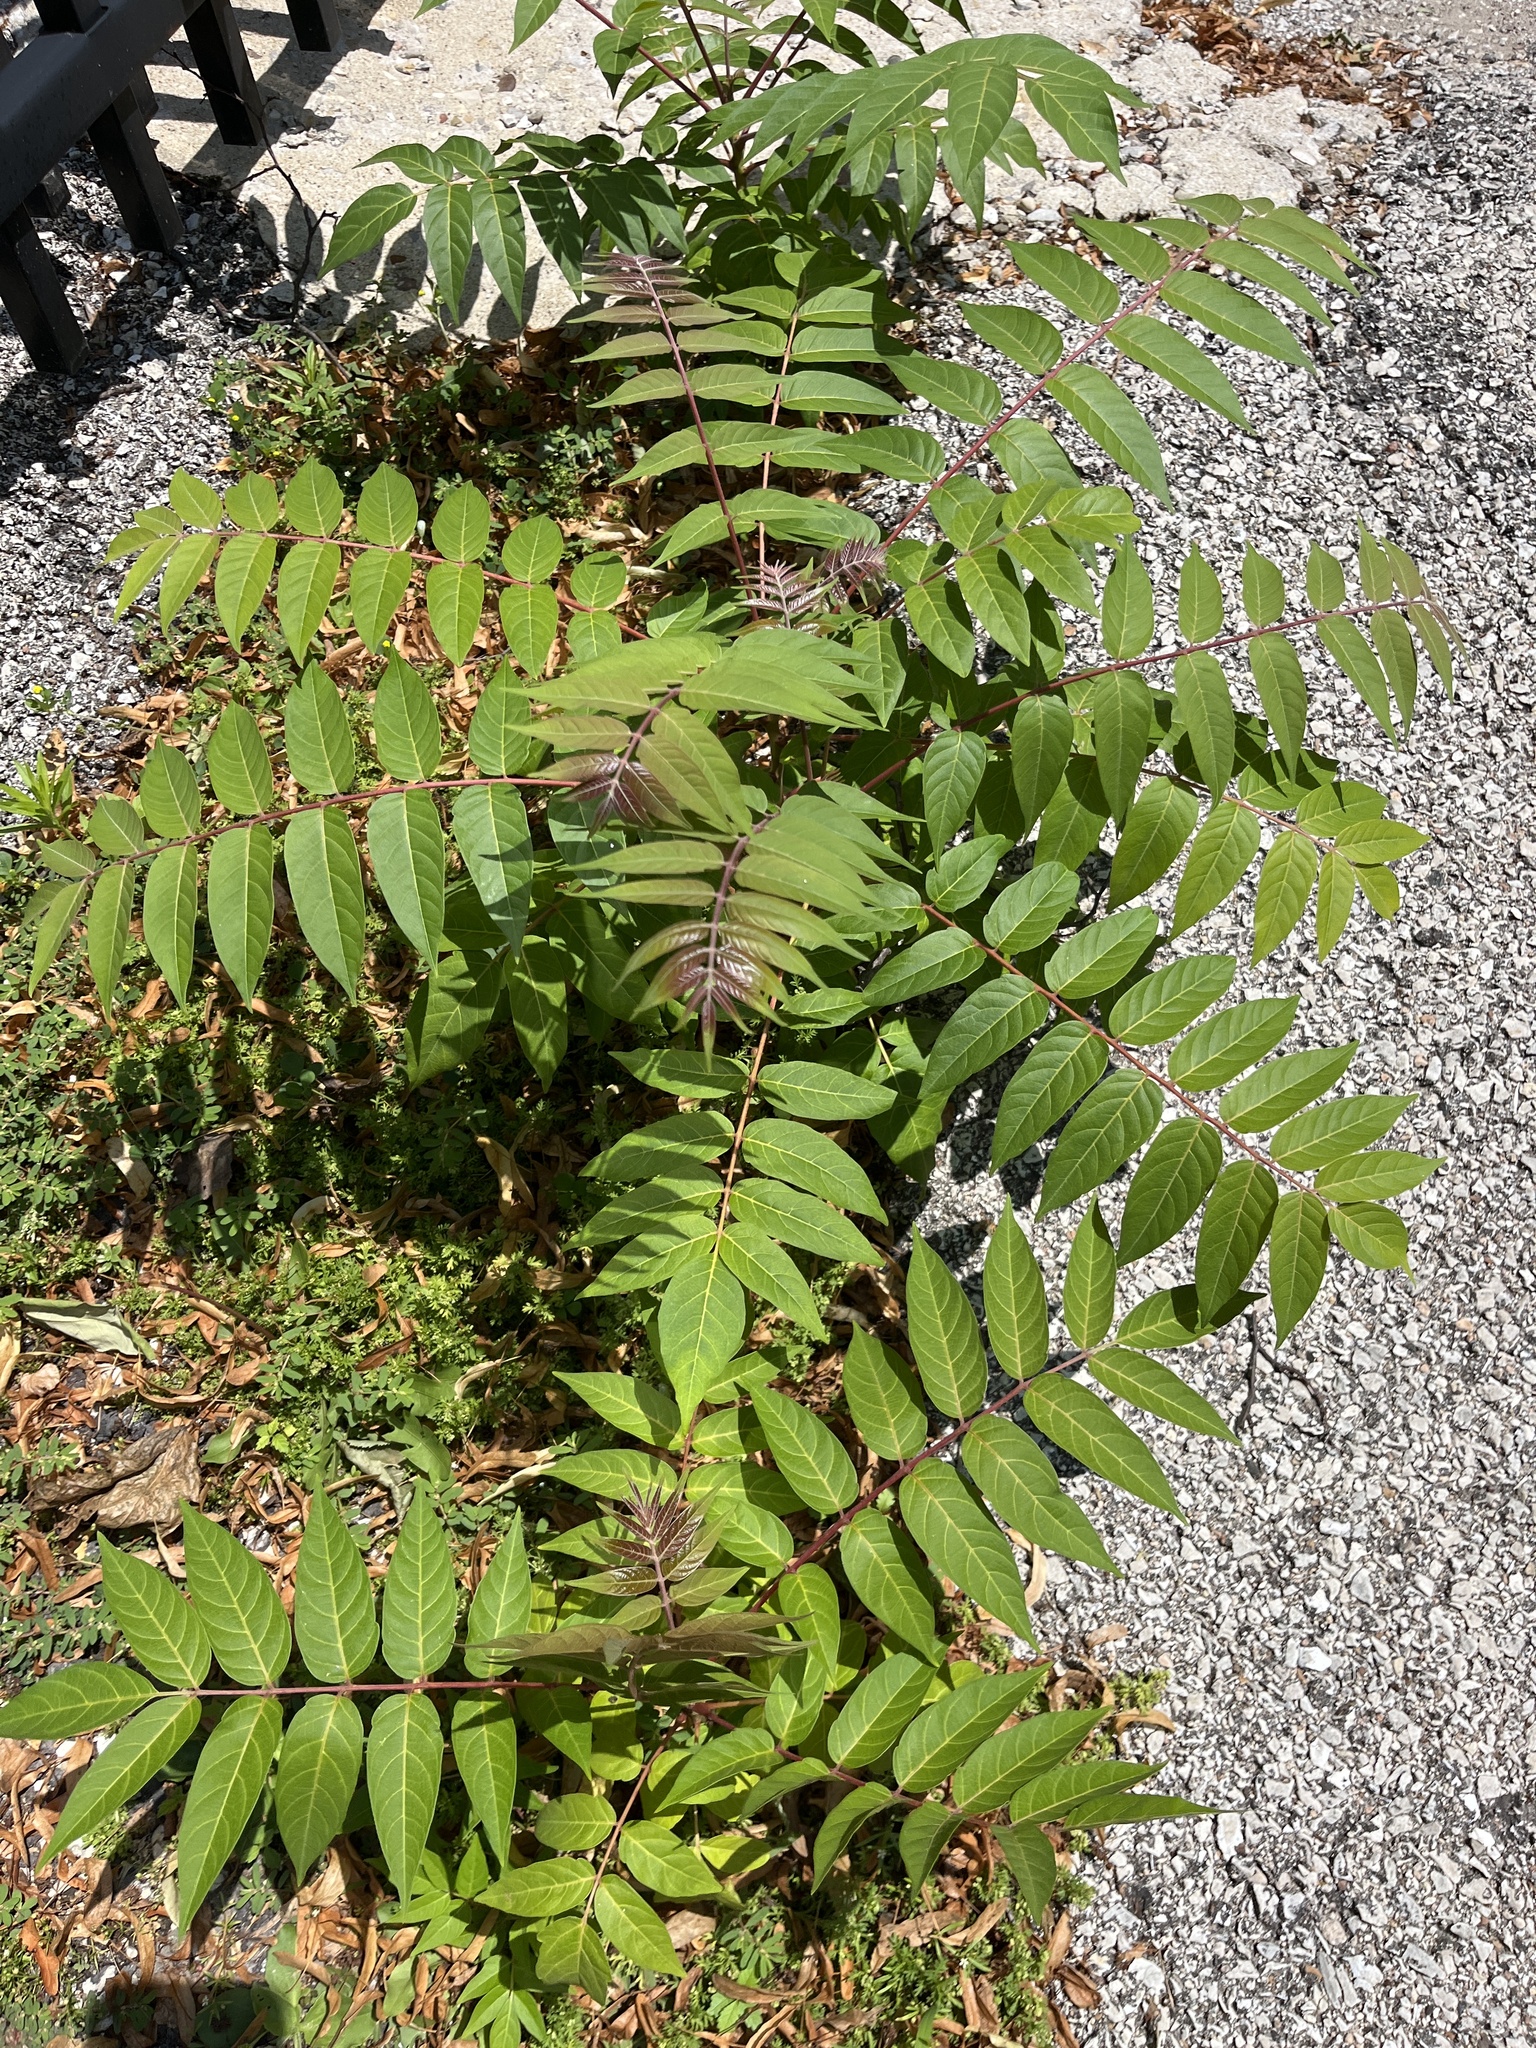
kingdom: Plantae
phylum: Tracheophyta
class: Magnoliopsida
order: Sapindales
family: Simaroubaceae
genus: Ailanthus
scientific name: Ailanthus altissima
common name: Tree-of-heaven
